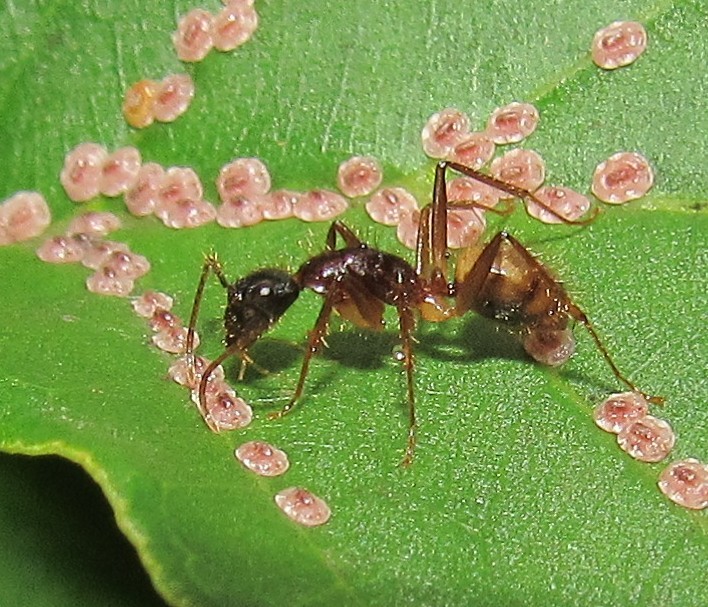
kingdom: Animalia
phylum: Arthropoda
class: Insecta
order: Hymenoptera
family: Formicidae
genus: Camponotus
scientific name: Camponotus atriceps
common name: Florida carpenter ant
